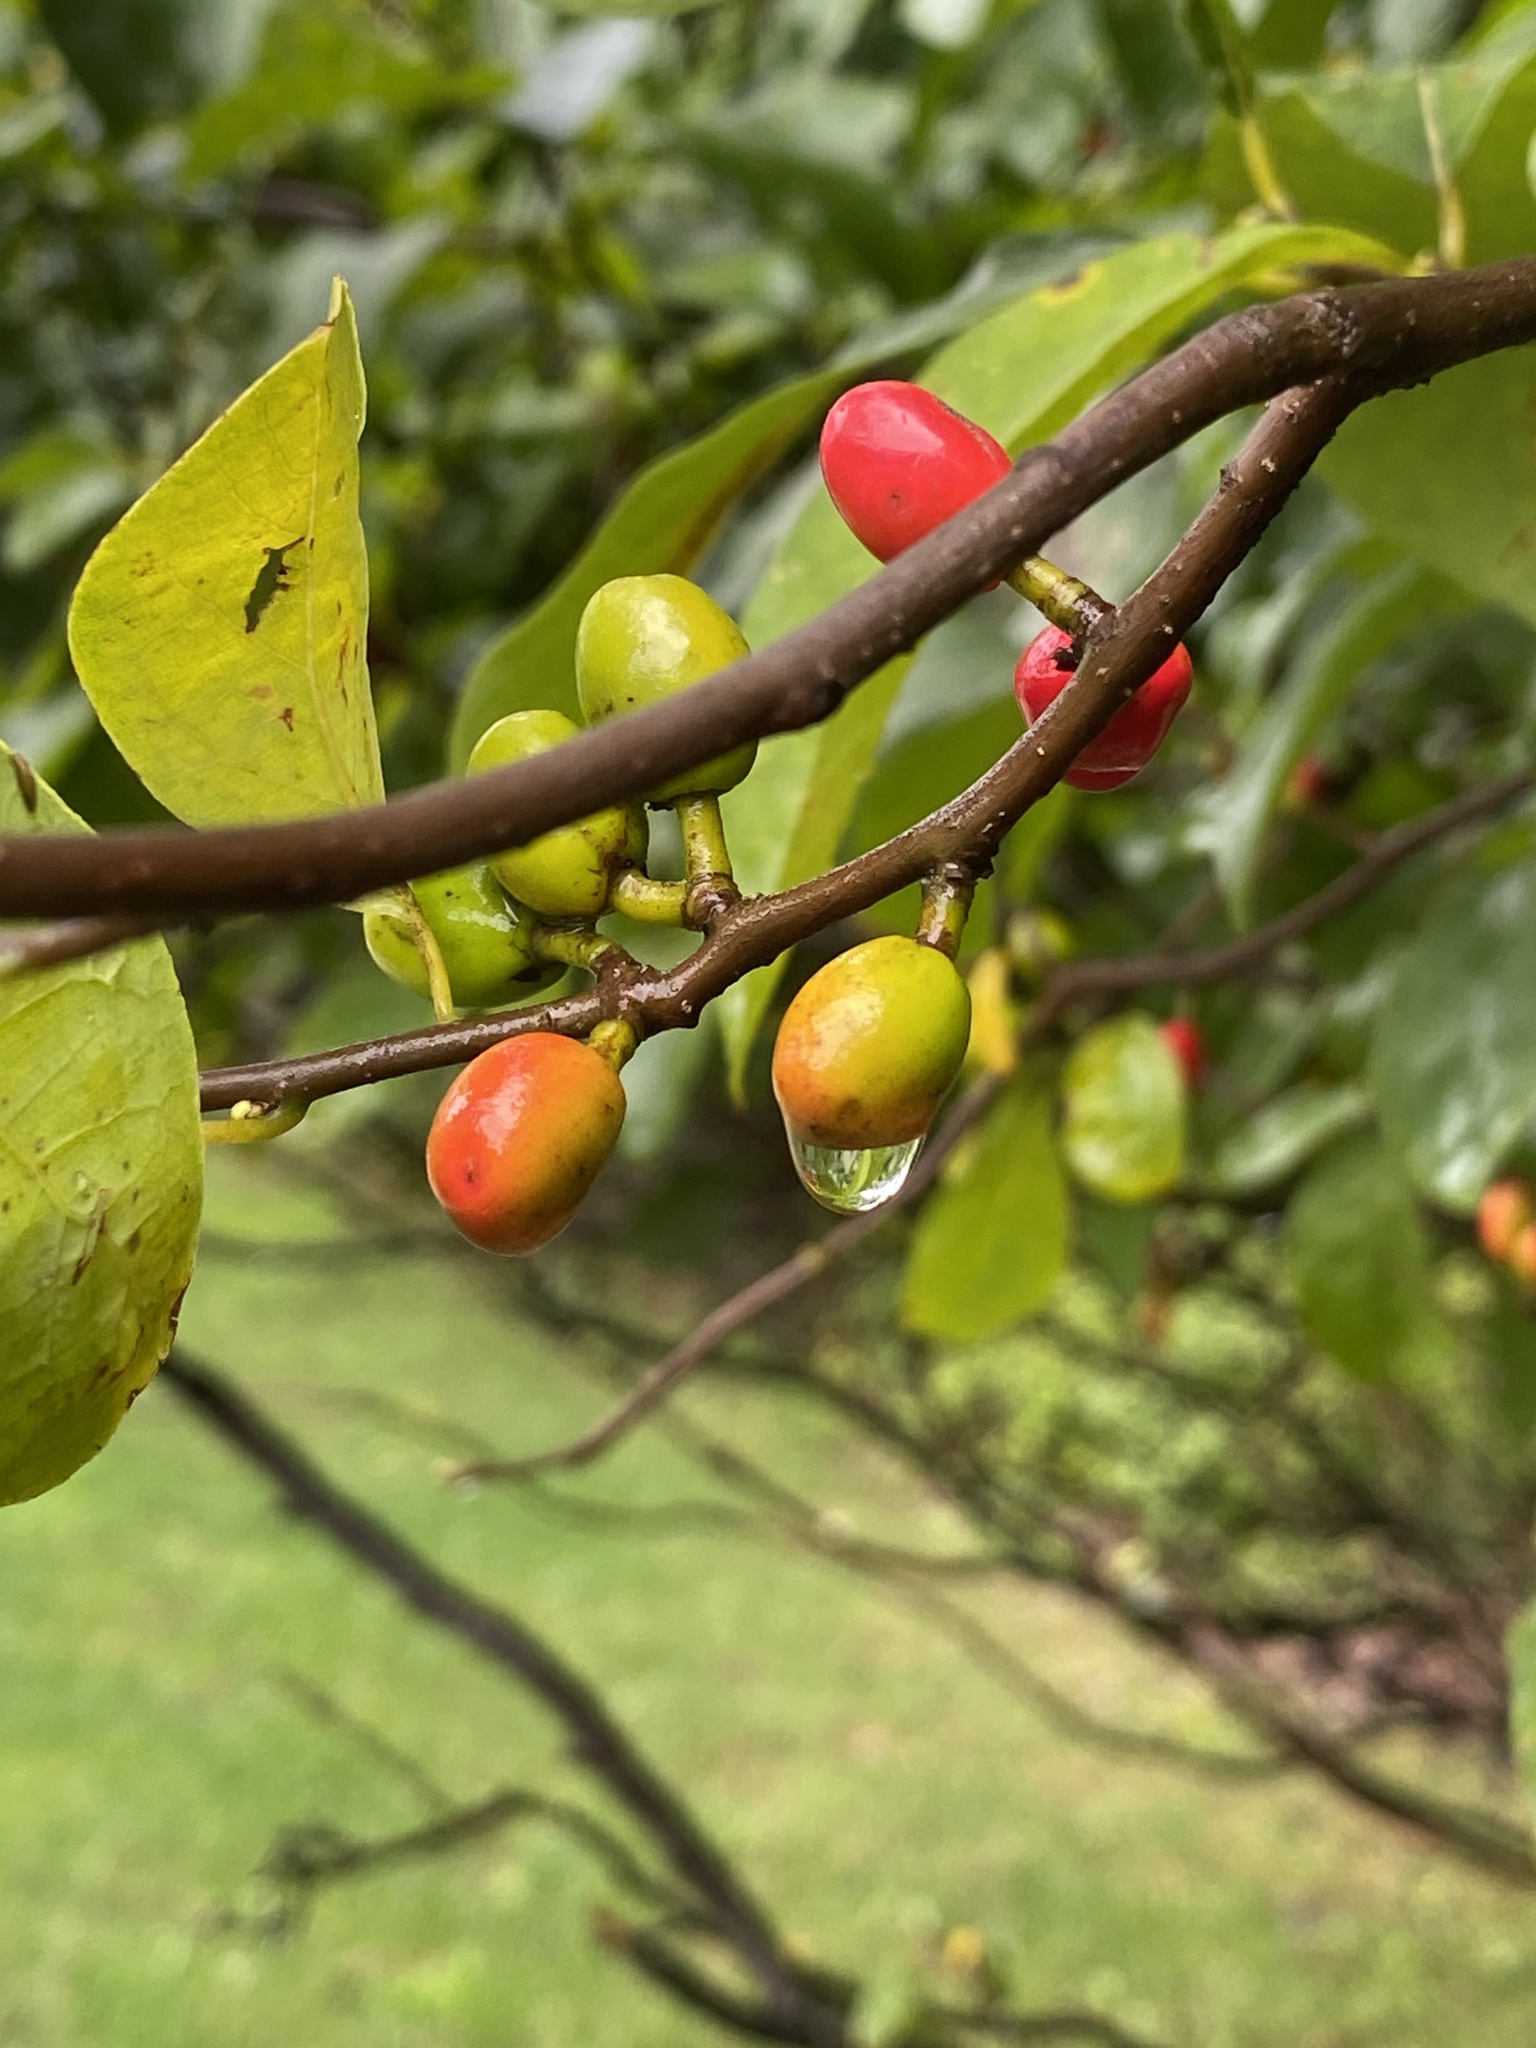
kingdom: Plantae
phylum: Tracheophyta
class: Magnoliopsida
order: Laurales
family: Lauraceae
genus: Lindera
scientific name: Lindera benzoin
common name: Spicebush
